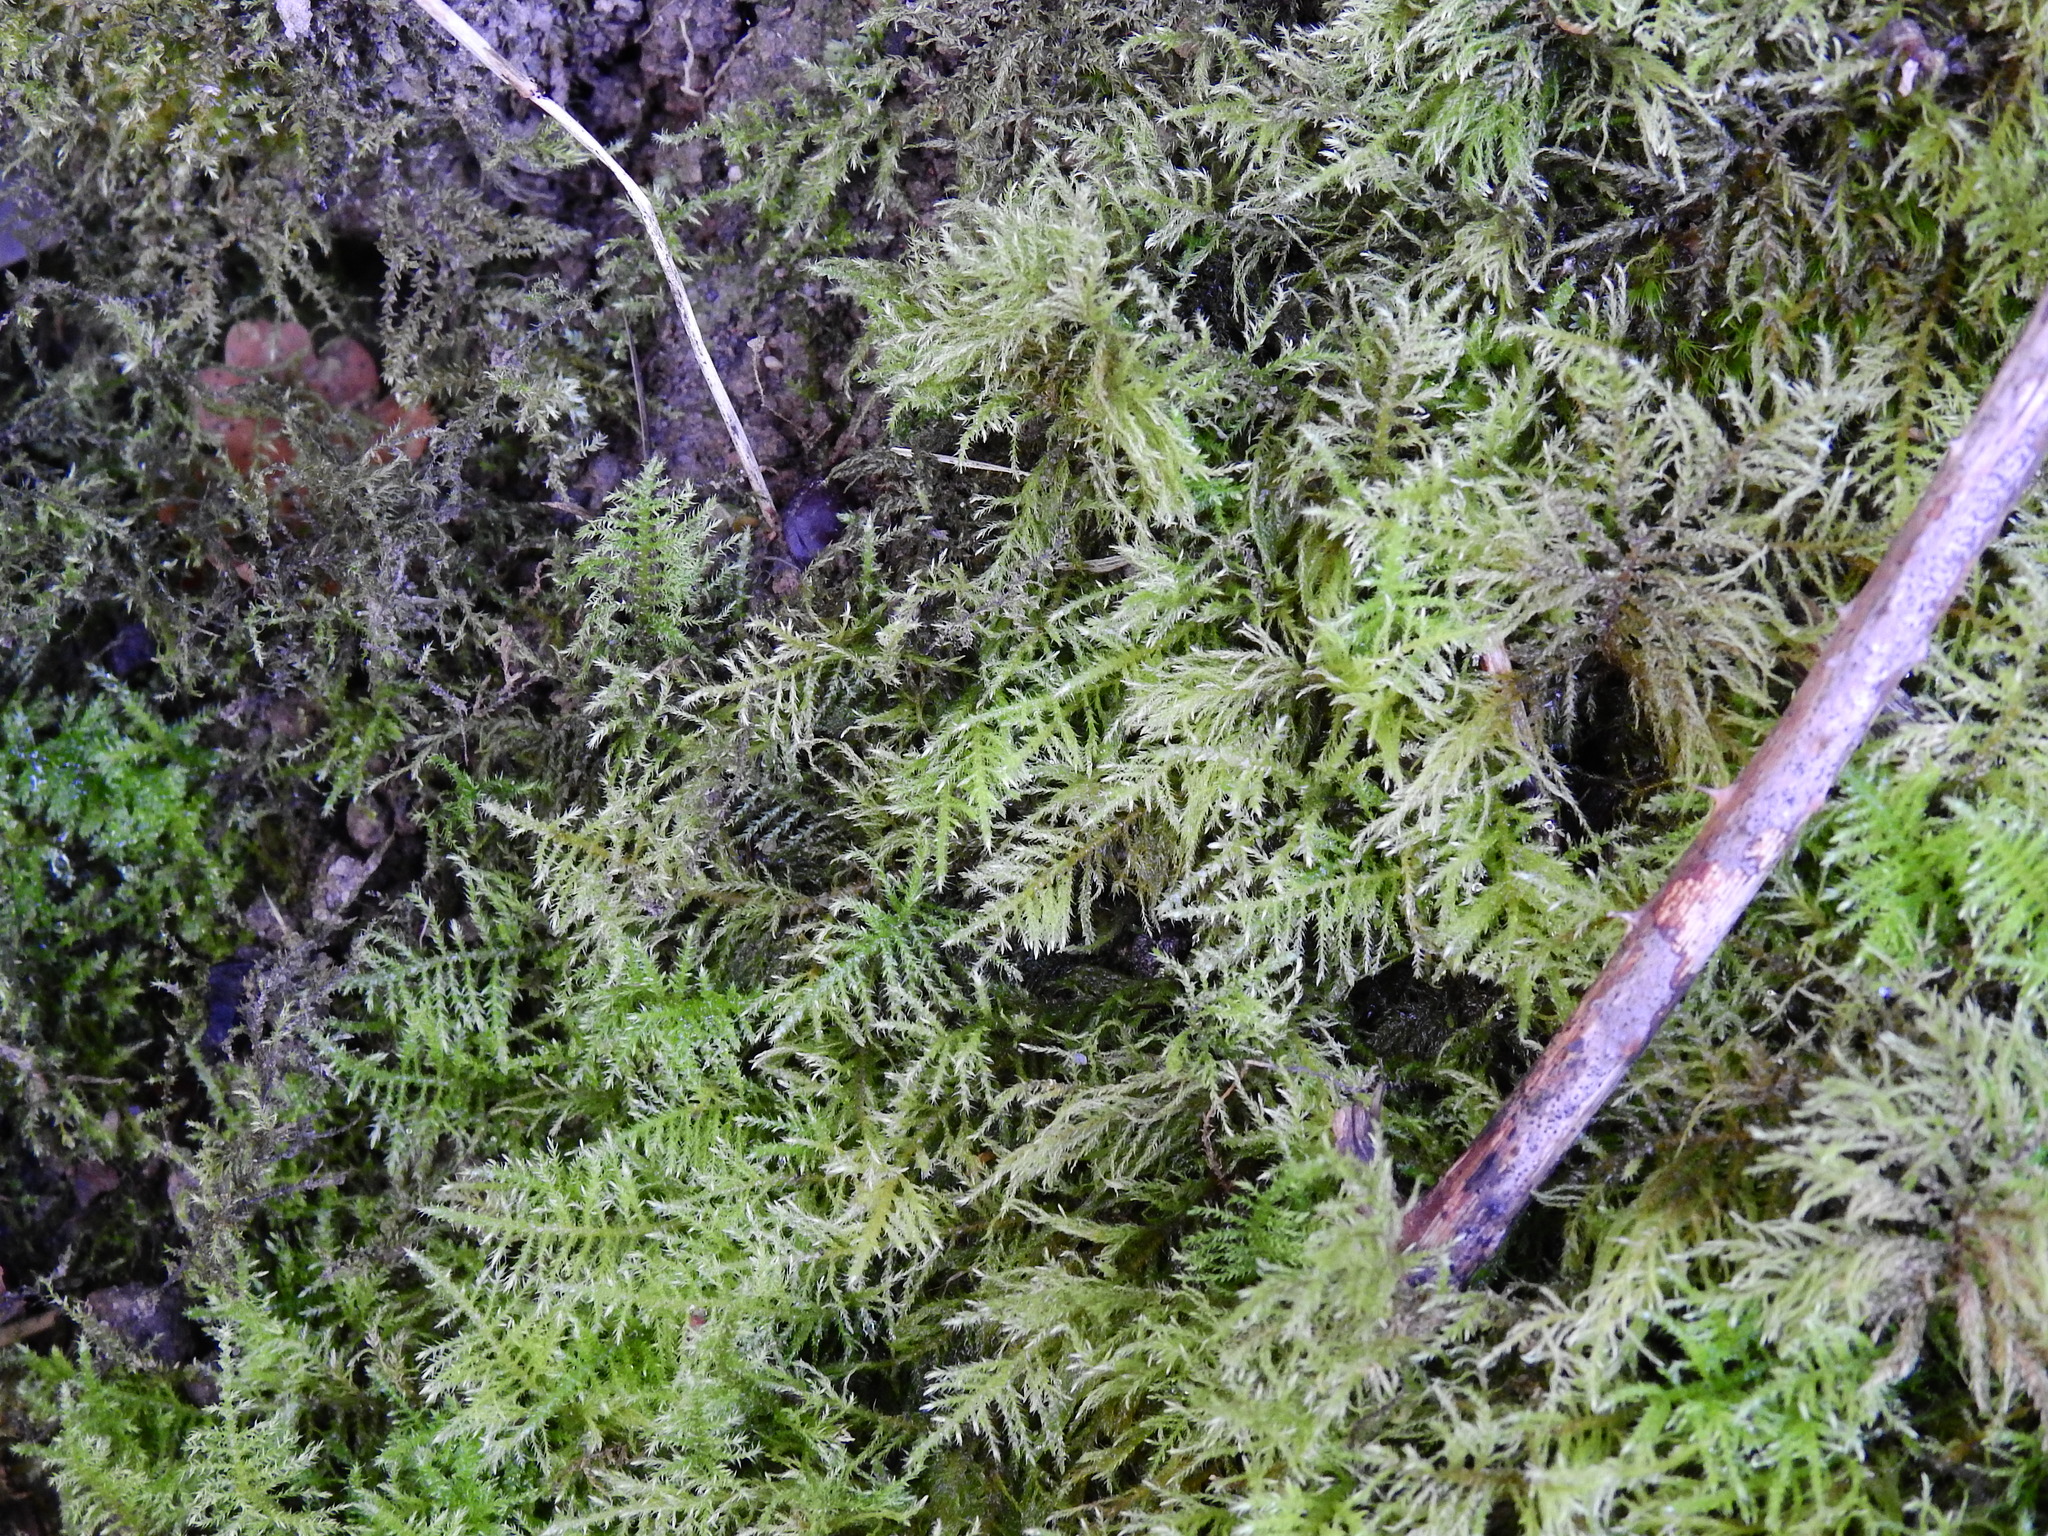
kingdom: Plantae
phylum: Bryophyta
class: Bryopsida
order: Hypnales
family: Brachytheciaceae
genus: Kindbergia
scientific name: Kindbergia praelonga
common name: Slender beaked moss
